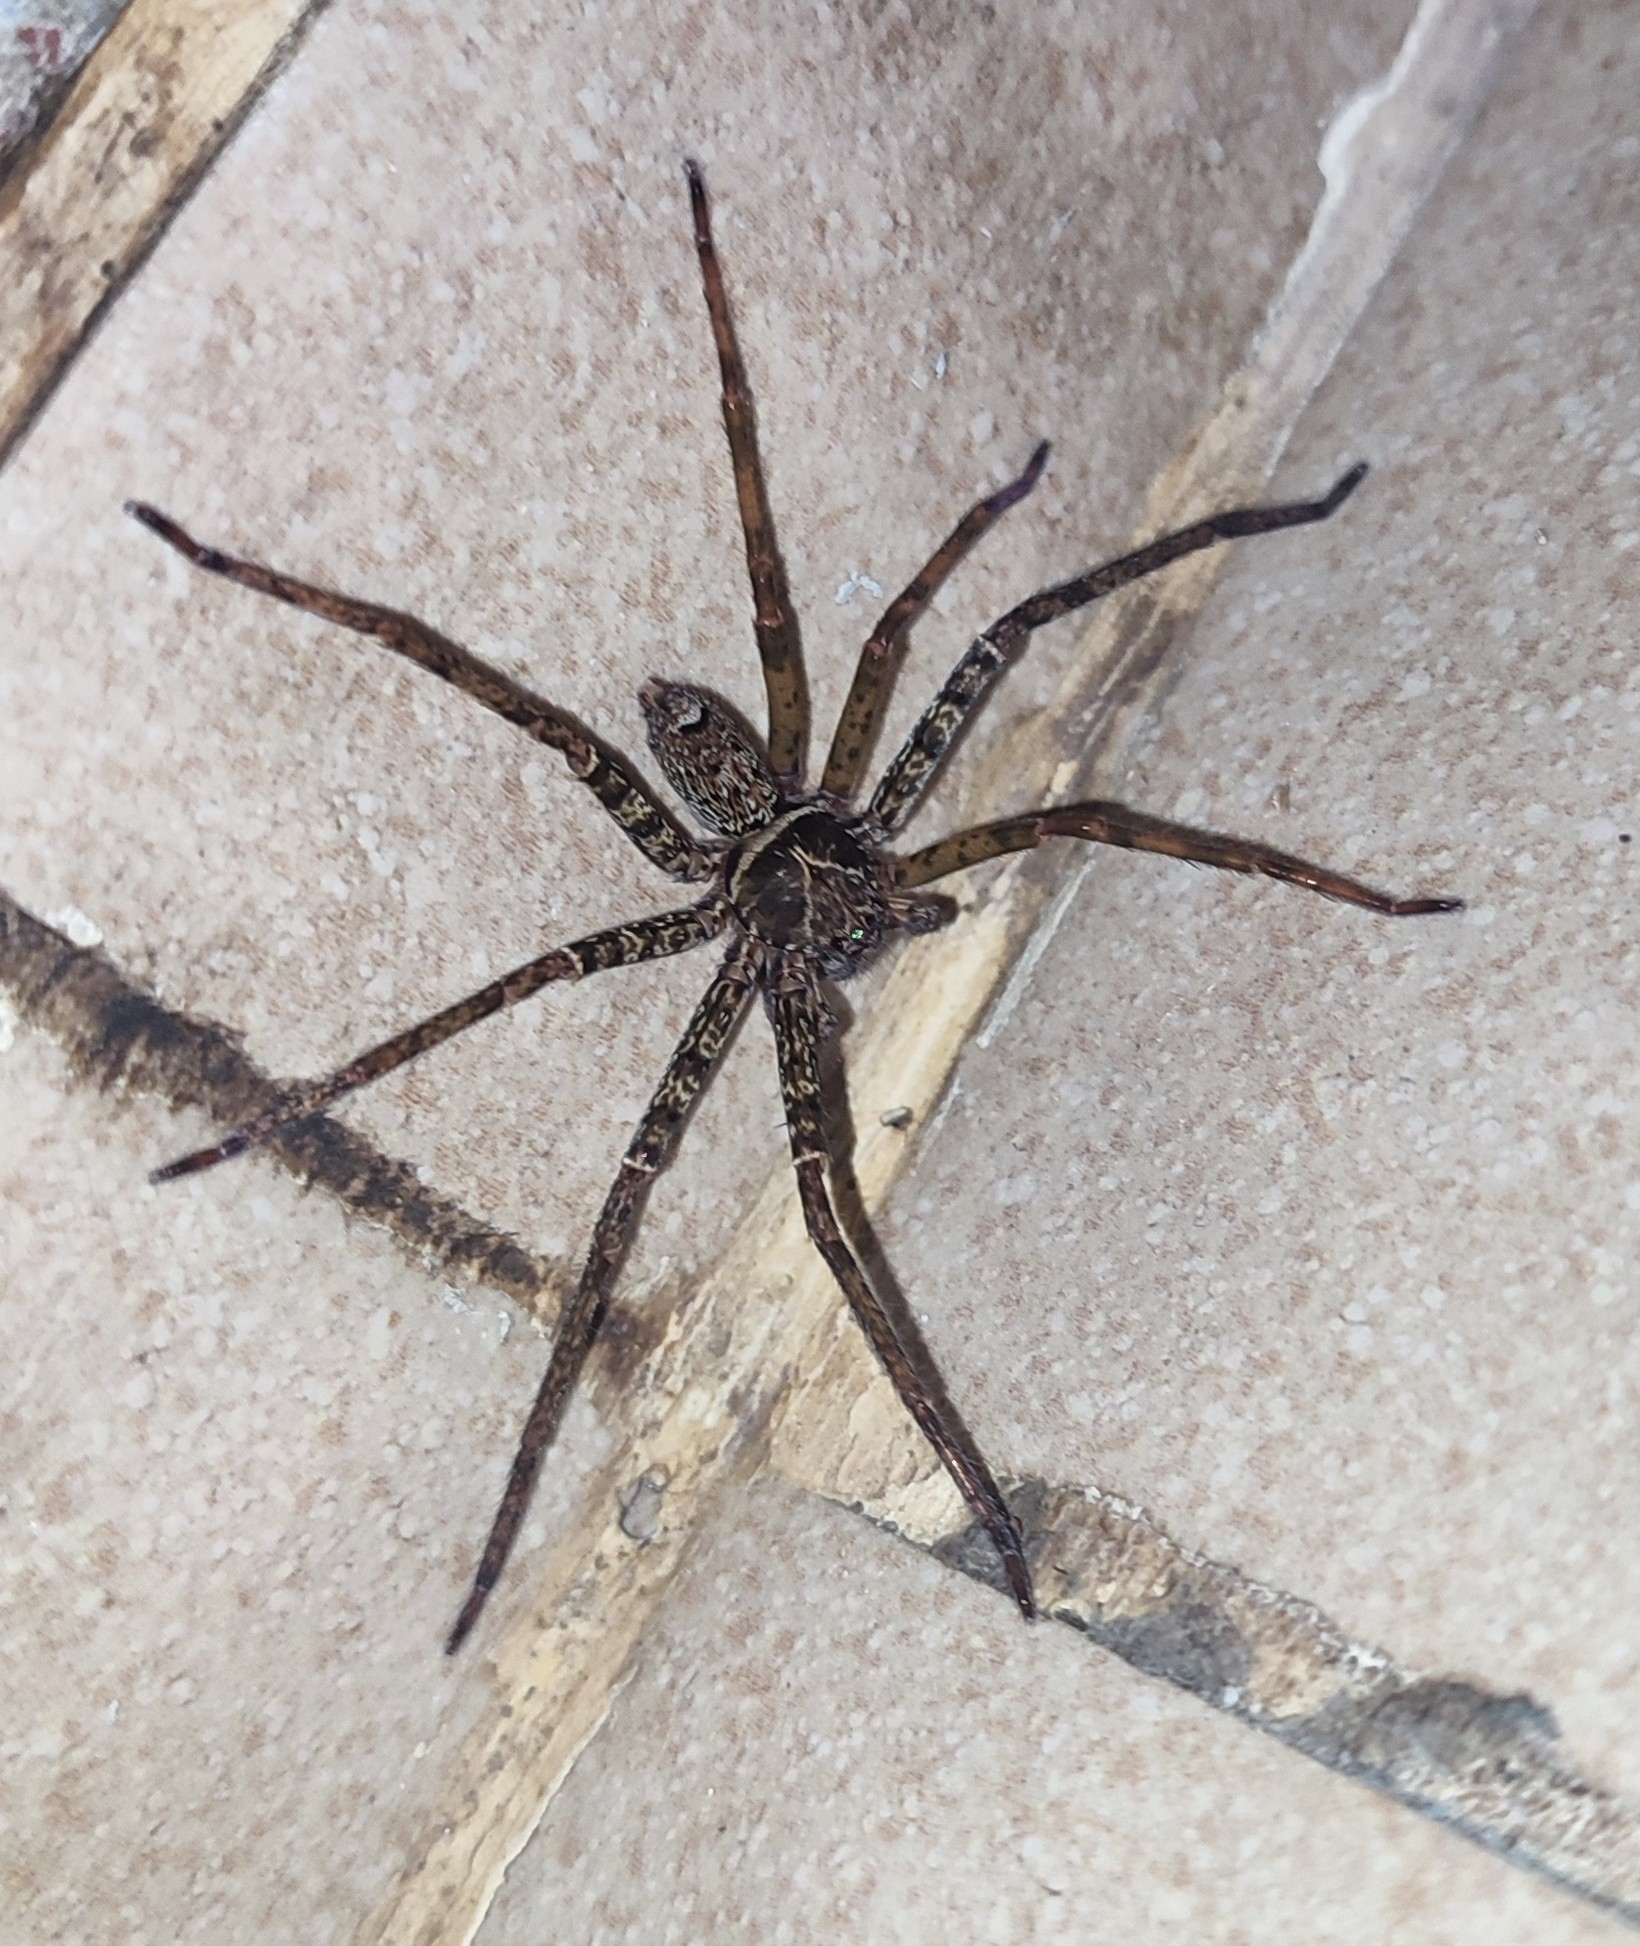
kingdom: Animalia
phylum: Arthropoda
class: Arachnida
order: Araneae
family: Sparassidae
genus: Heteropoda
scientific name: Heteropoda tetrica
